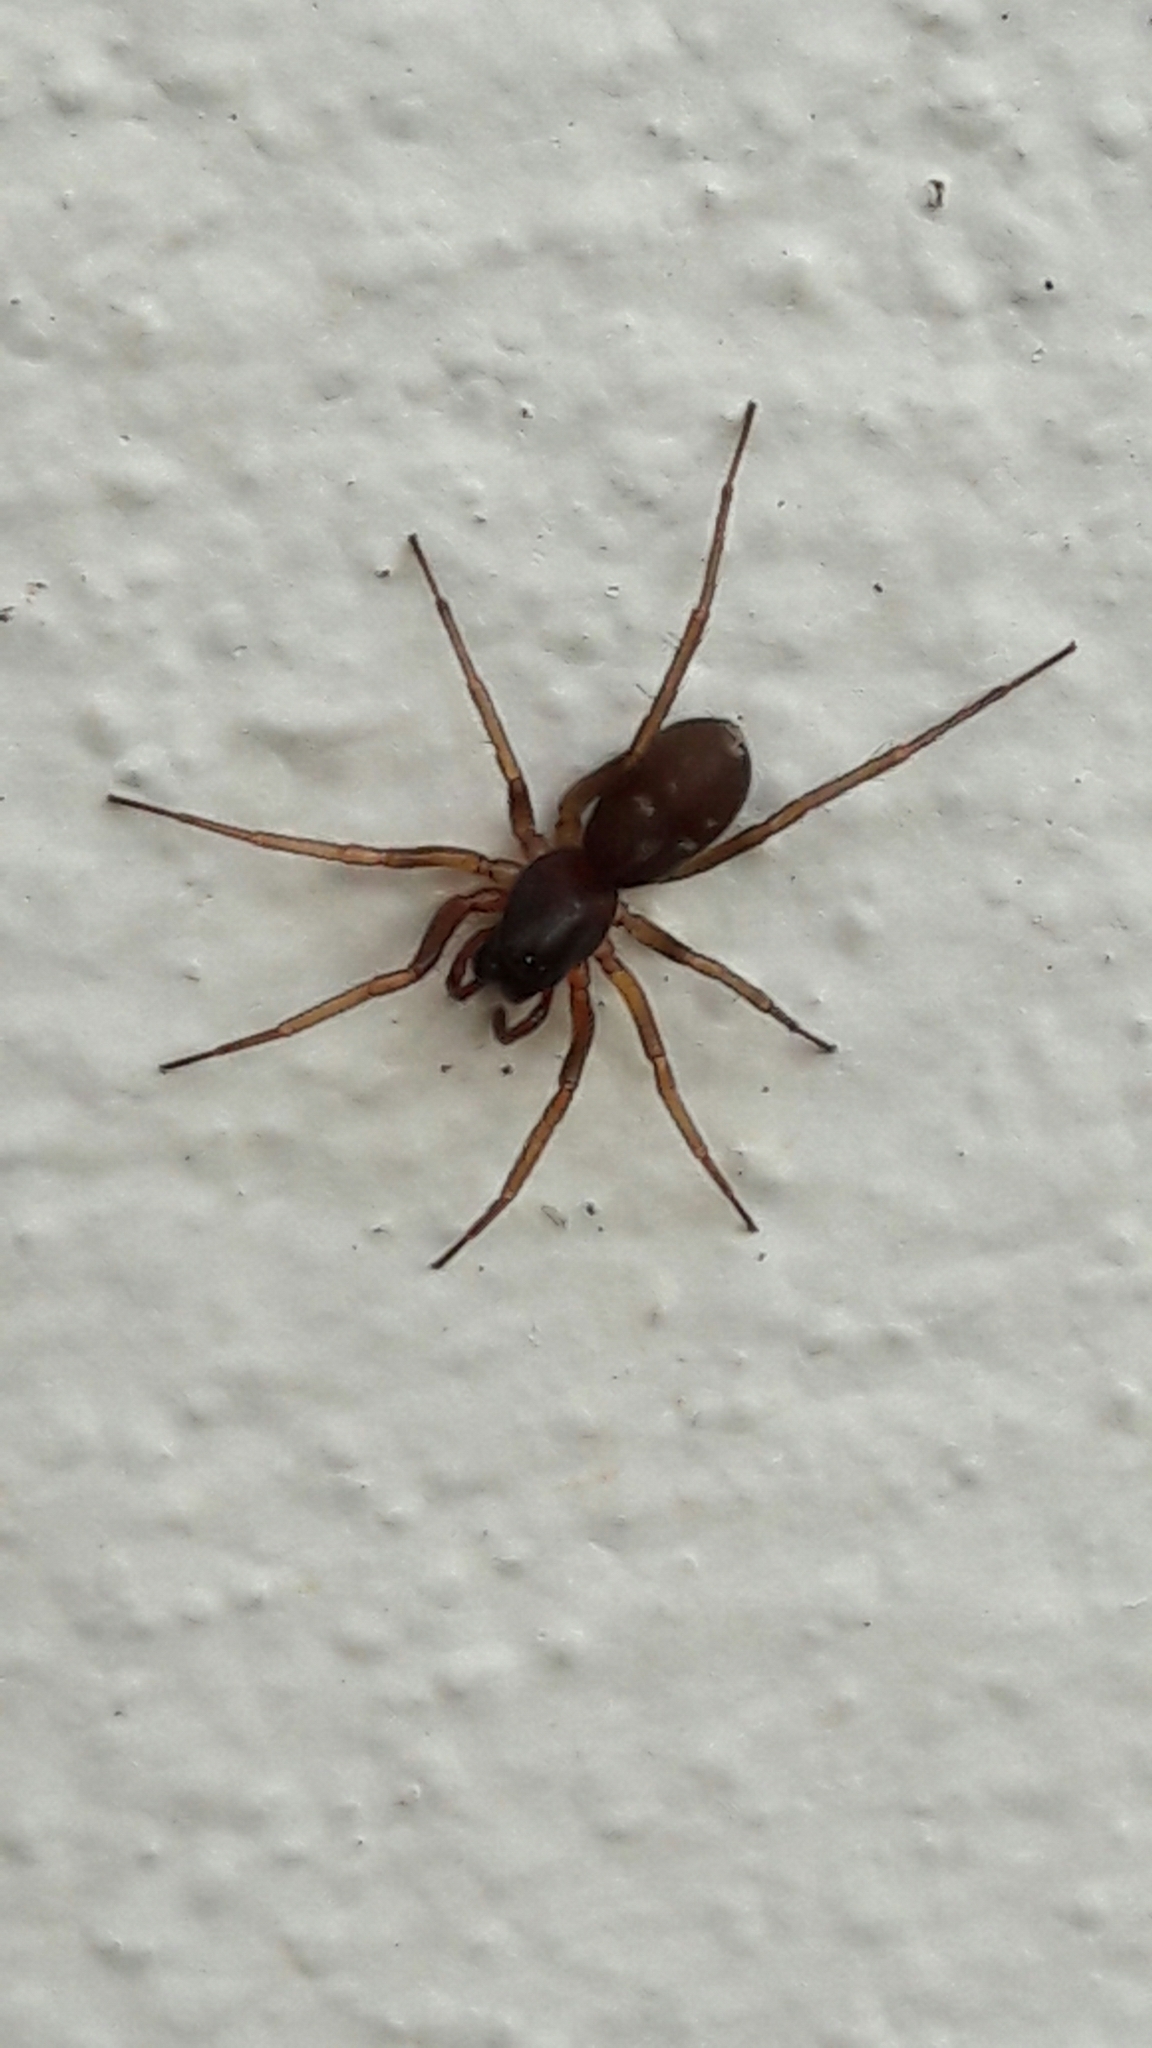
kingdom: Animalia
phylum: Arthropoda
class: Arachnida
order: Araneae
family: Corinnidae
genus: Falconina
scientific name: Falconina gracilis
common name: Antmimic spider
